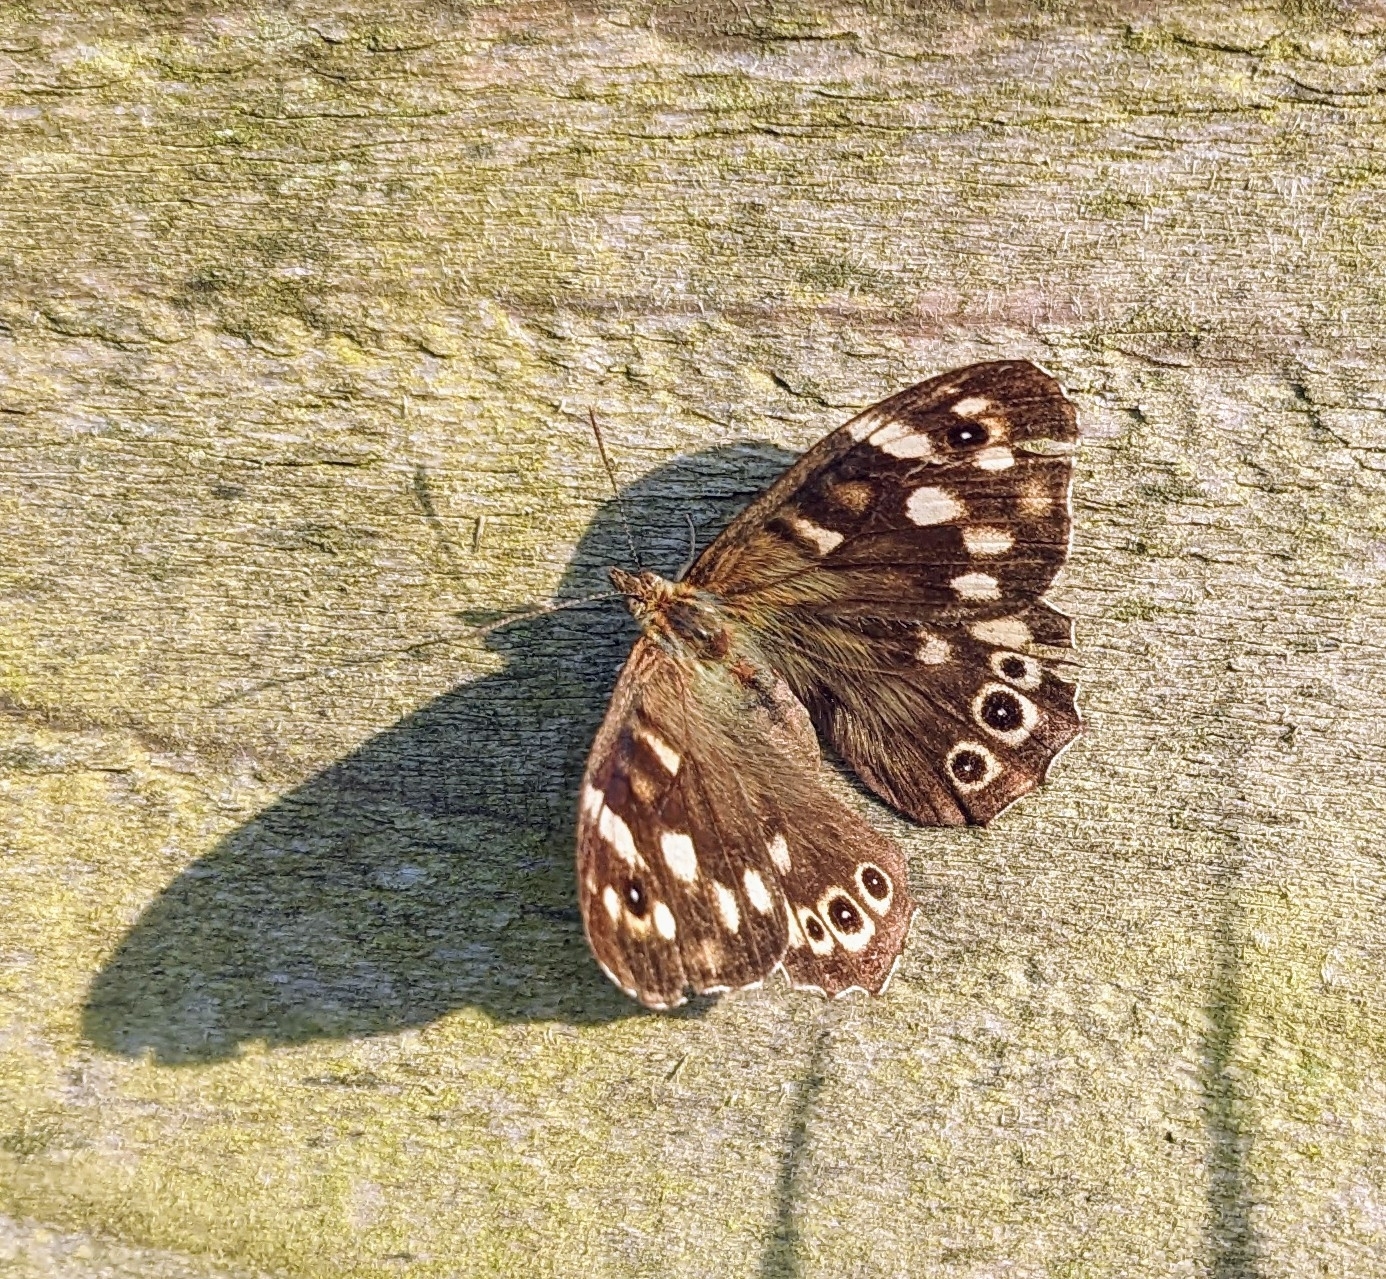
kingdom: Animalia
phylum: Arthropoda
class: Insecta
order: Lepidoptera
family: Nymphalidae
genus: Pararge
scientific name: Pararge aegeria
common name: Speckled wood
